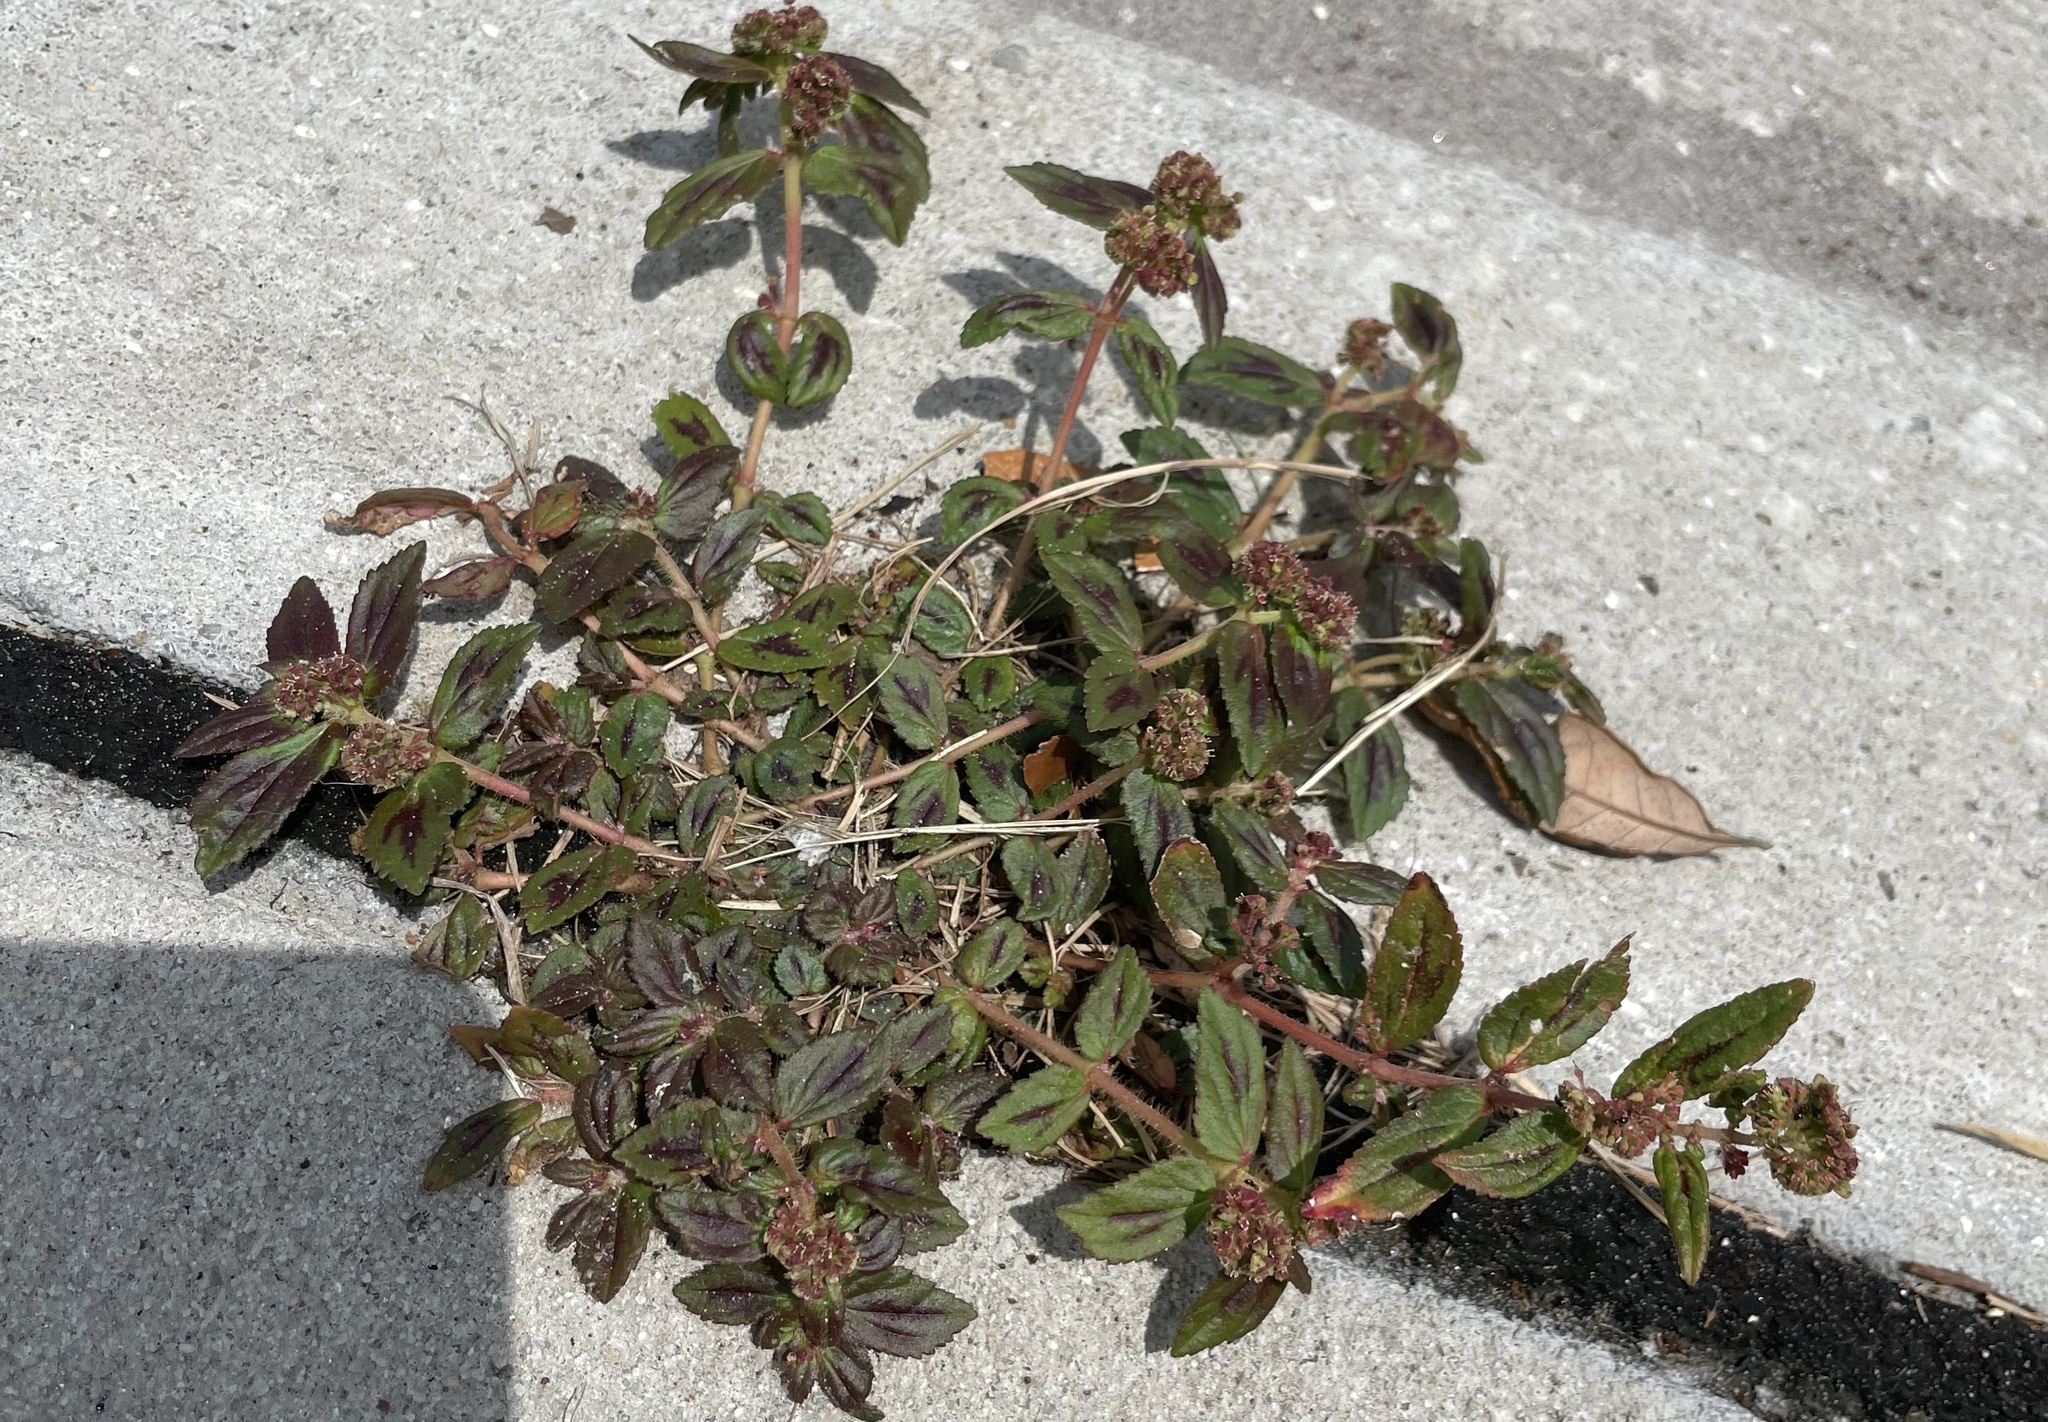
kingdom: Plantae
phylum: Tracheophyta
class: Magnoliopsida
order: Malpighiales
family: Euphorbiaceae
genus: Euphorbia
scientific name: Euphorbia hirta
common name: Pillpod sandmat
